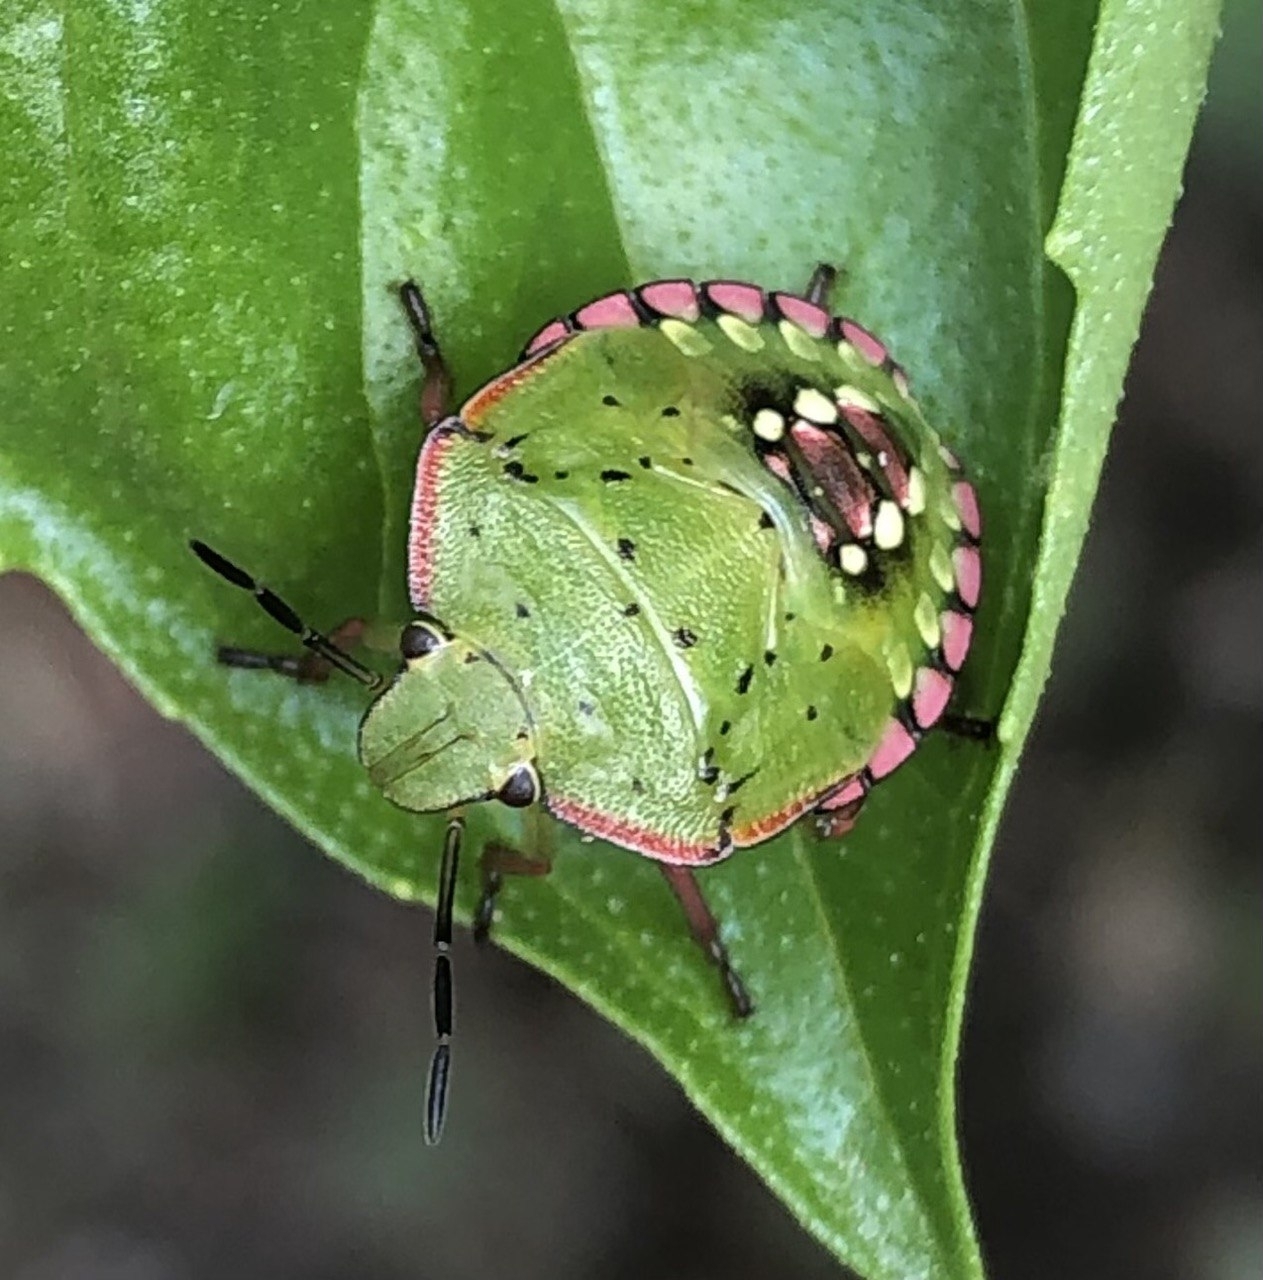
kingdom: Animalia
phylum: Arthropoda
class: Insecta
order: Hemiptera
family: Pentatomidae
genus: Nezara
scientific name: Nezara viridula
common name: Southern green stink bug
